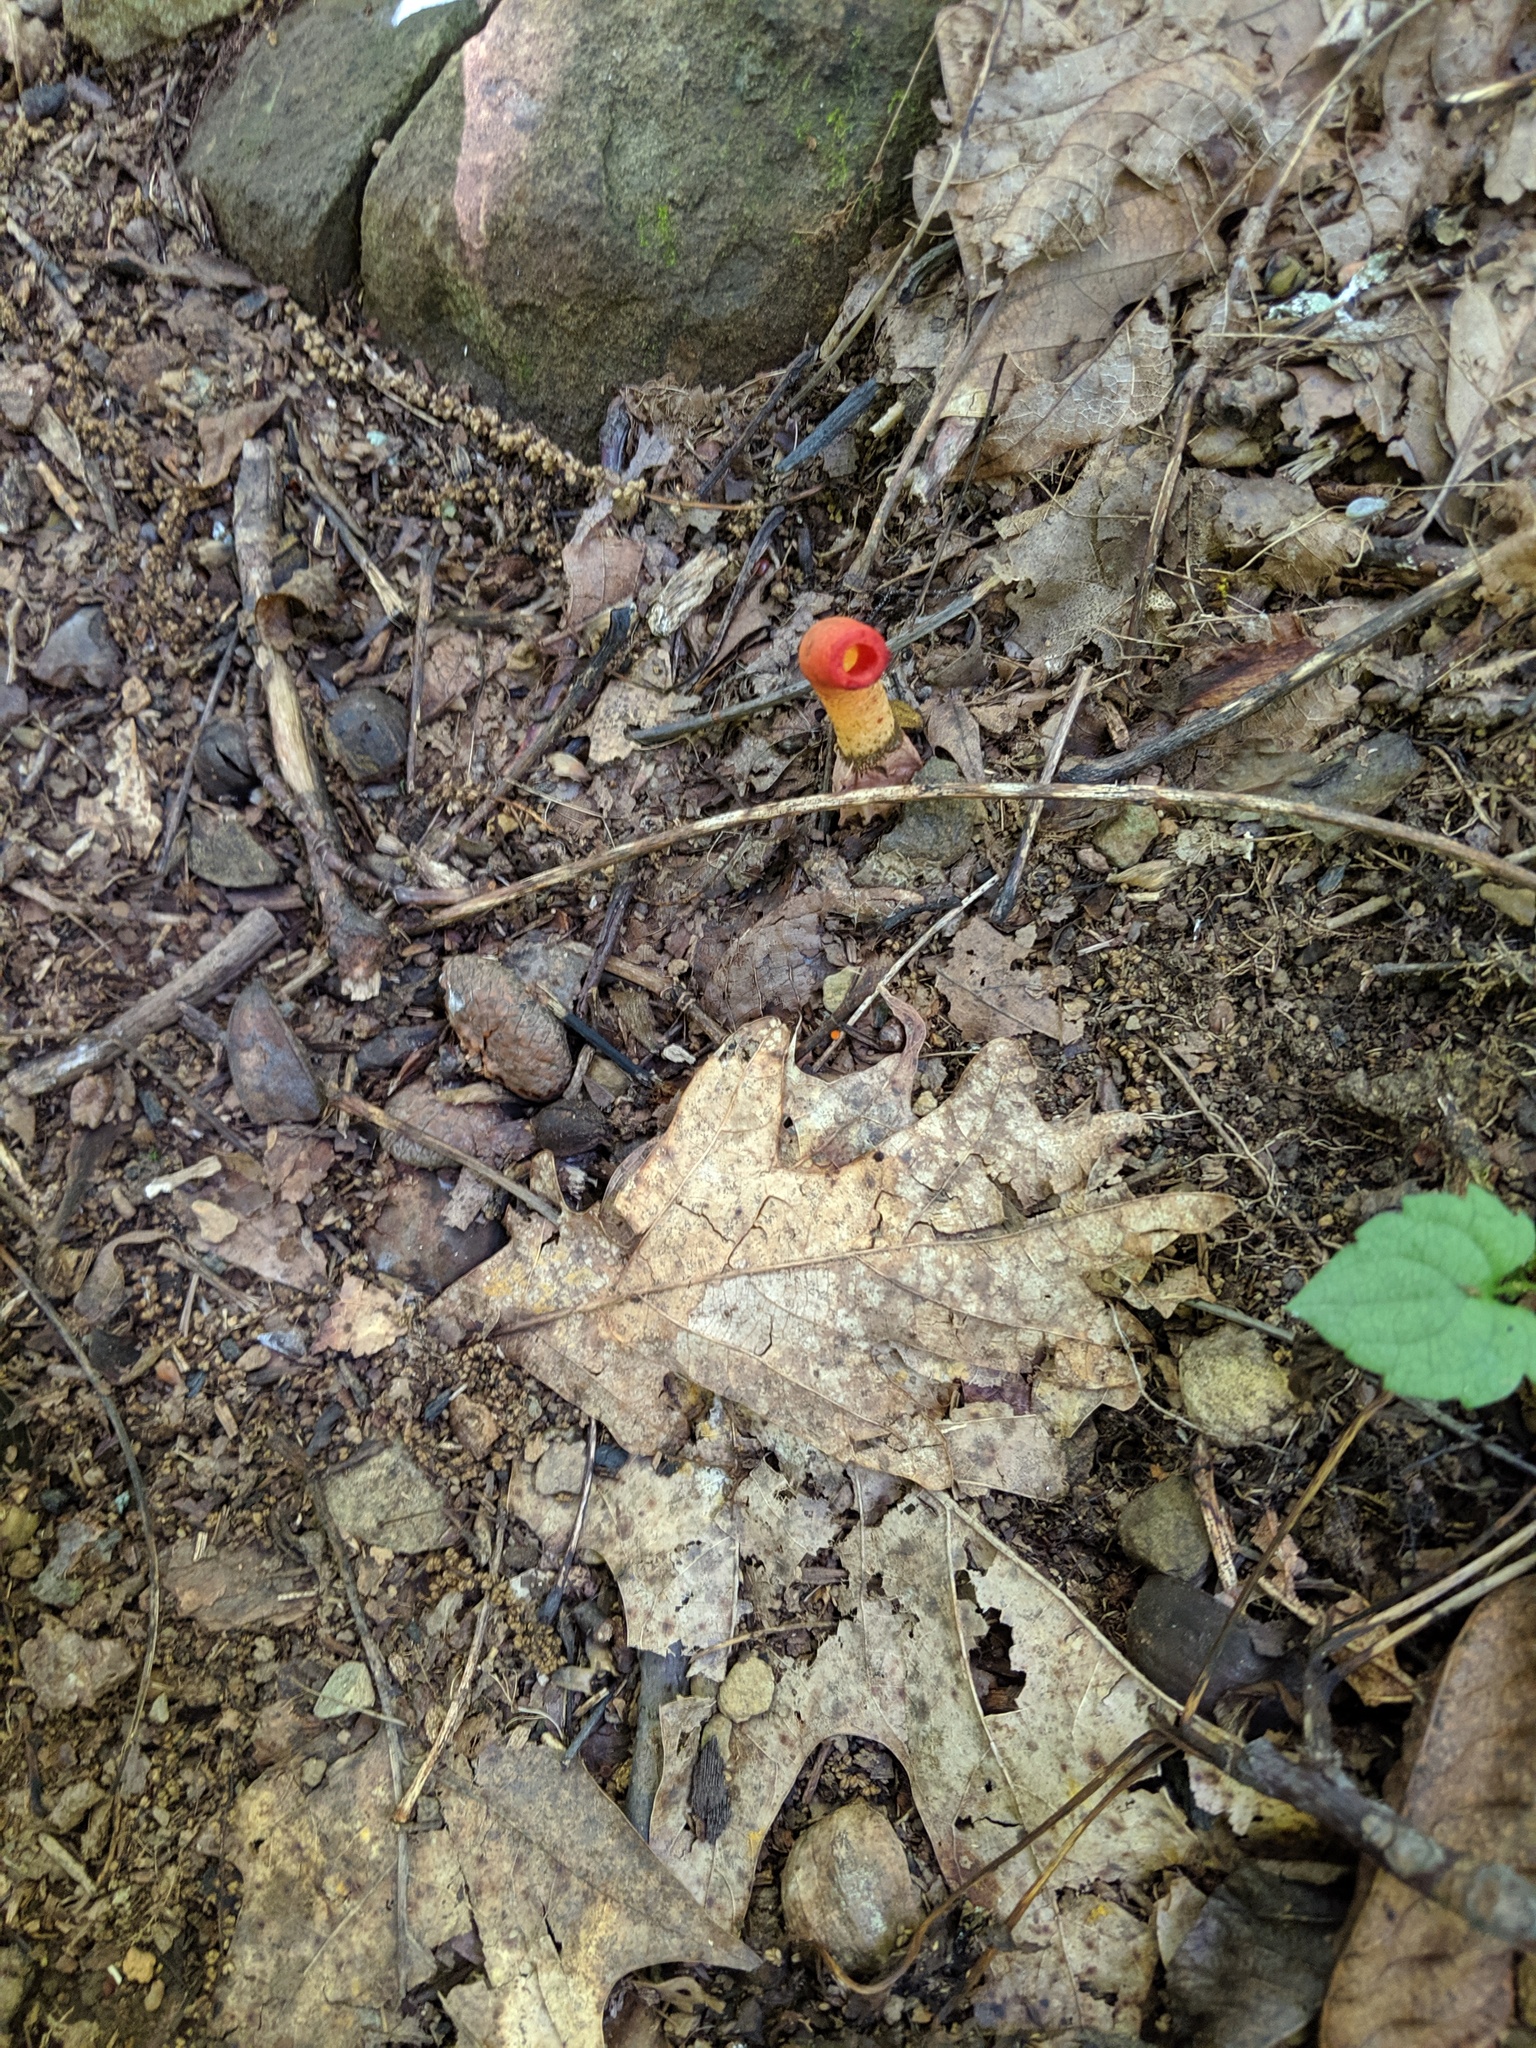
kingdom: Fungi
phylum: Basidiomycota
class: Agaricomycetes
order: Phallales
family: Phallaceae
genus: Mutinus
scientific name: Mutinus elegans
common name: Devil's dipstick
